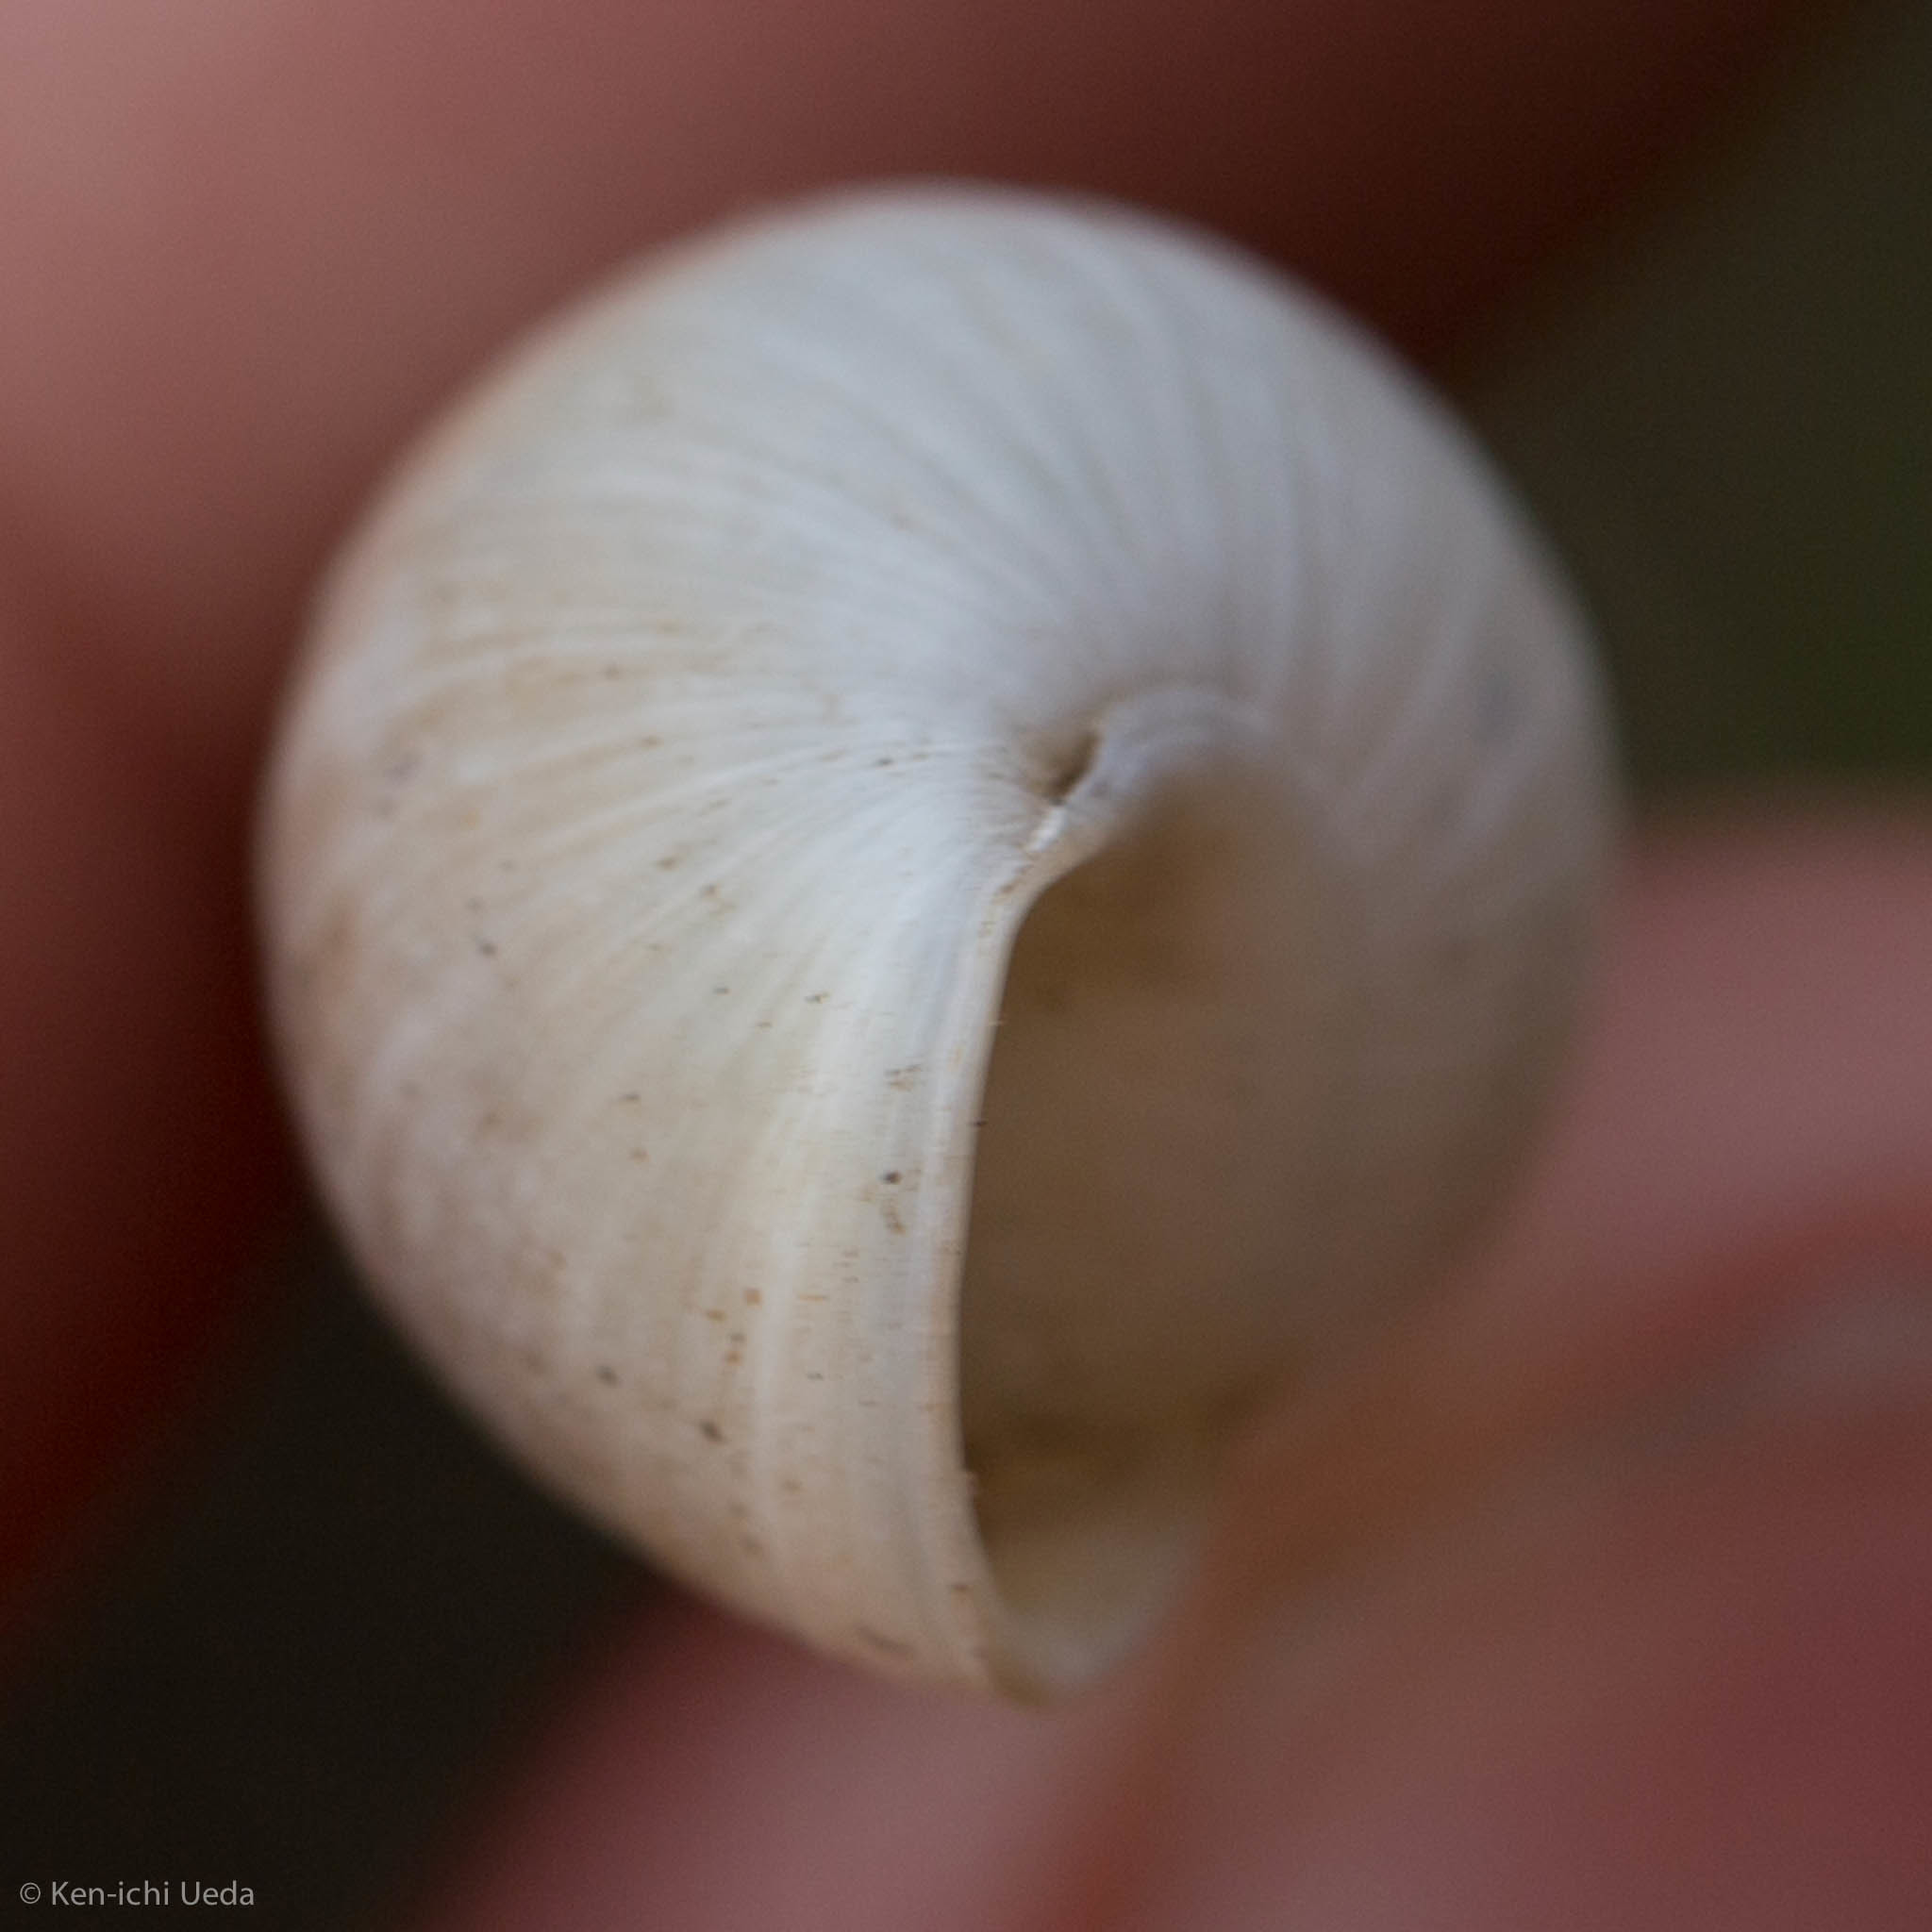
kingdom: Animalia
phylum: Mollusca
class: Gastropoda
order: Stylommatophora
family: Achatinidae
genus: Rumina
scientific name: Rumina decollata
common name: Decollate snail
